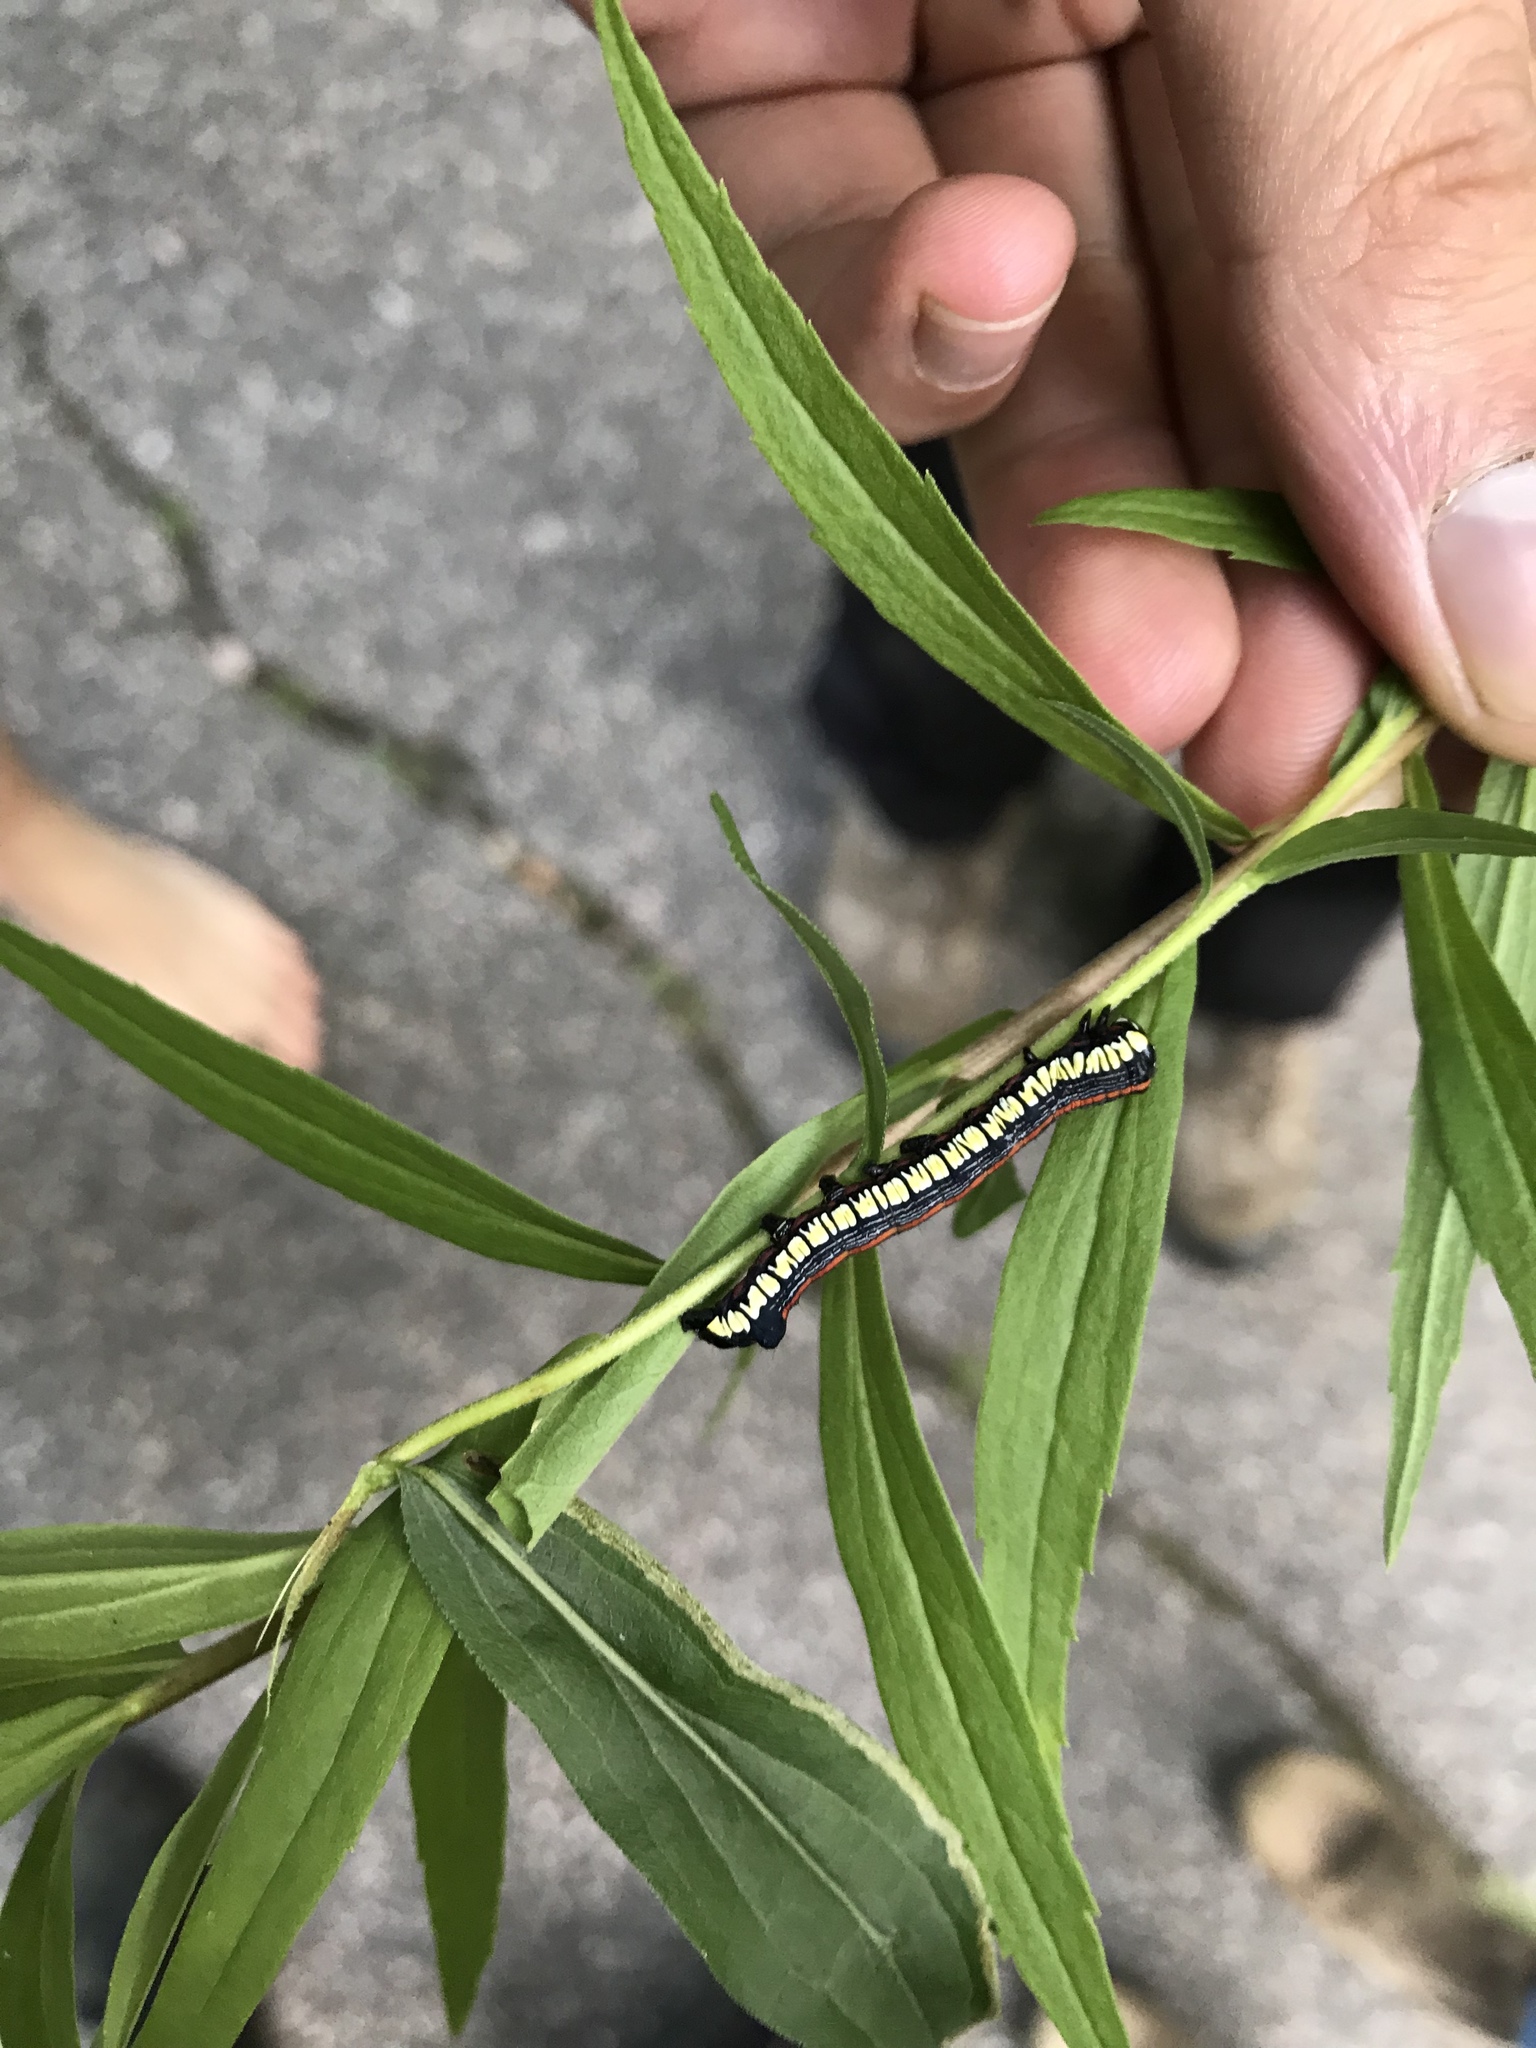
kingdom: Animalia
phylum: Arthropoda
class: Insecta
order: Lepidoptera
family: Noctuidae
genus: Cucullia
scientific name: Cucullia convexipennis
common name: Brown-hooded owlet
